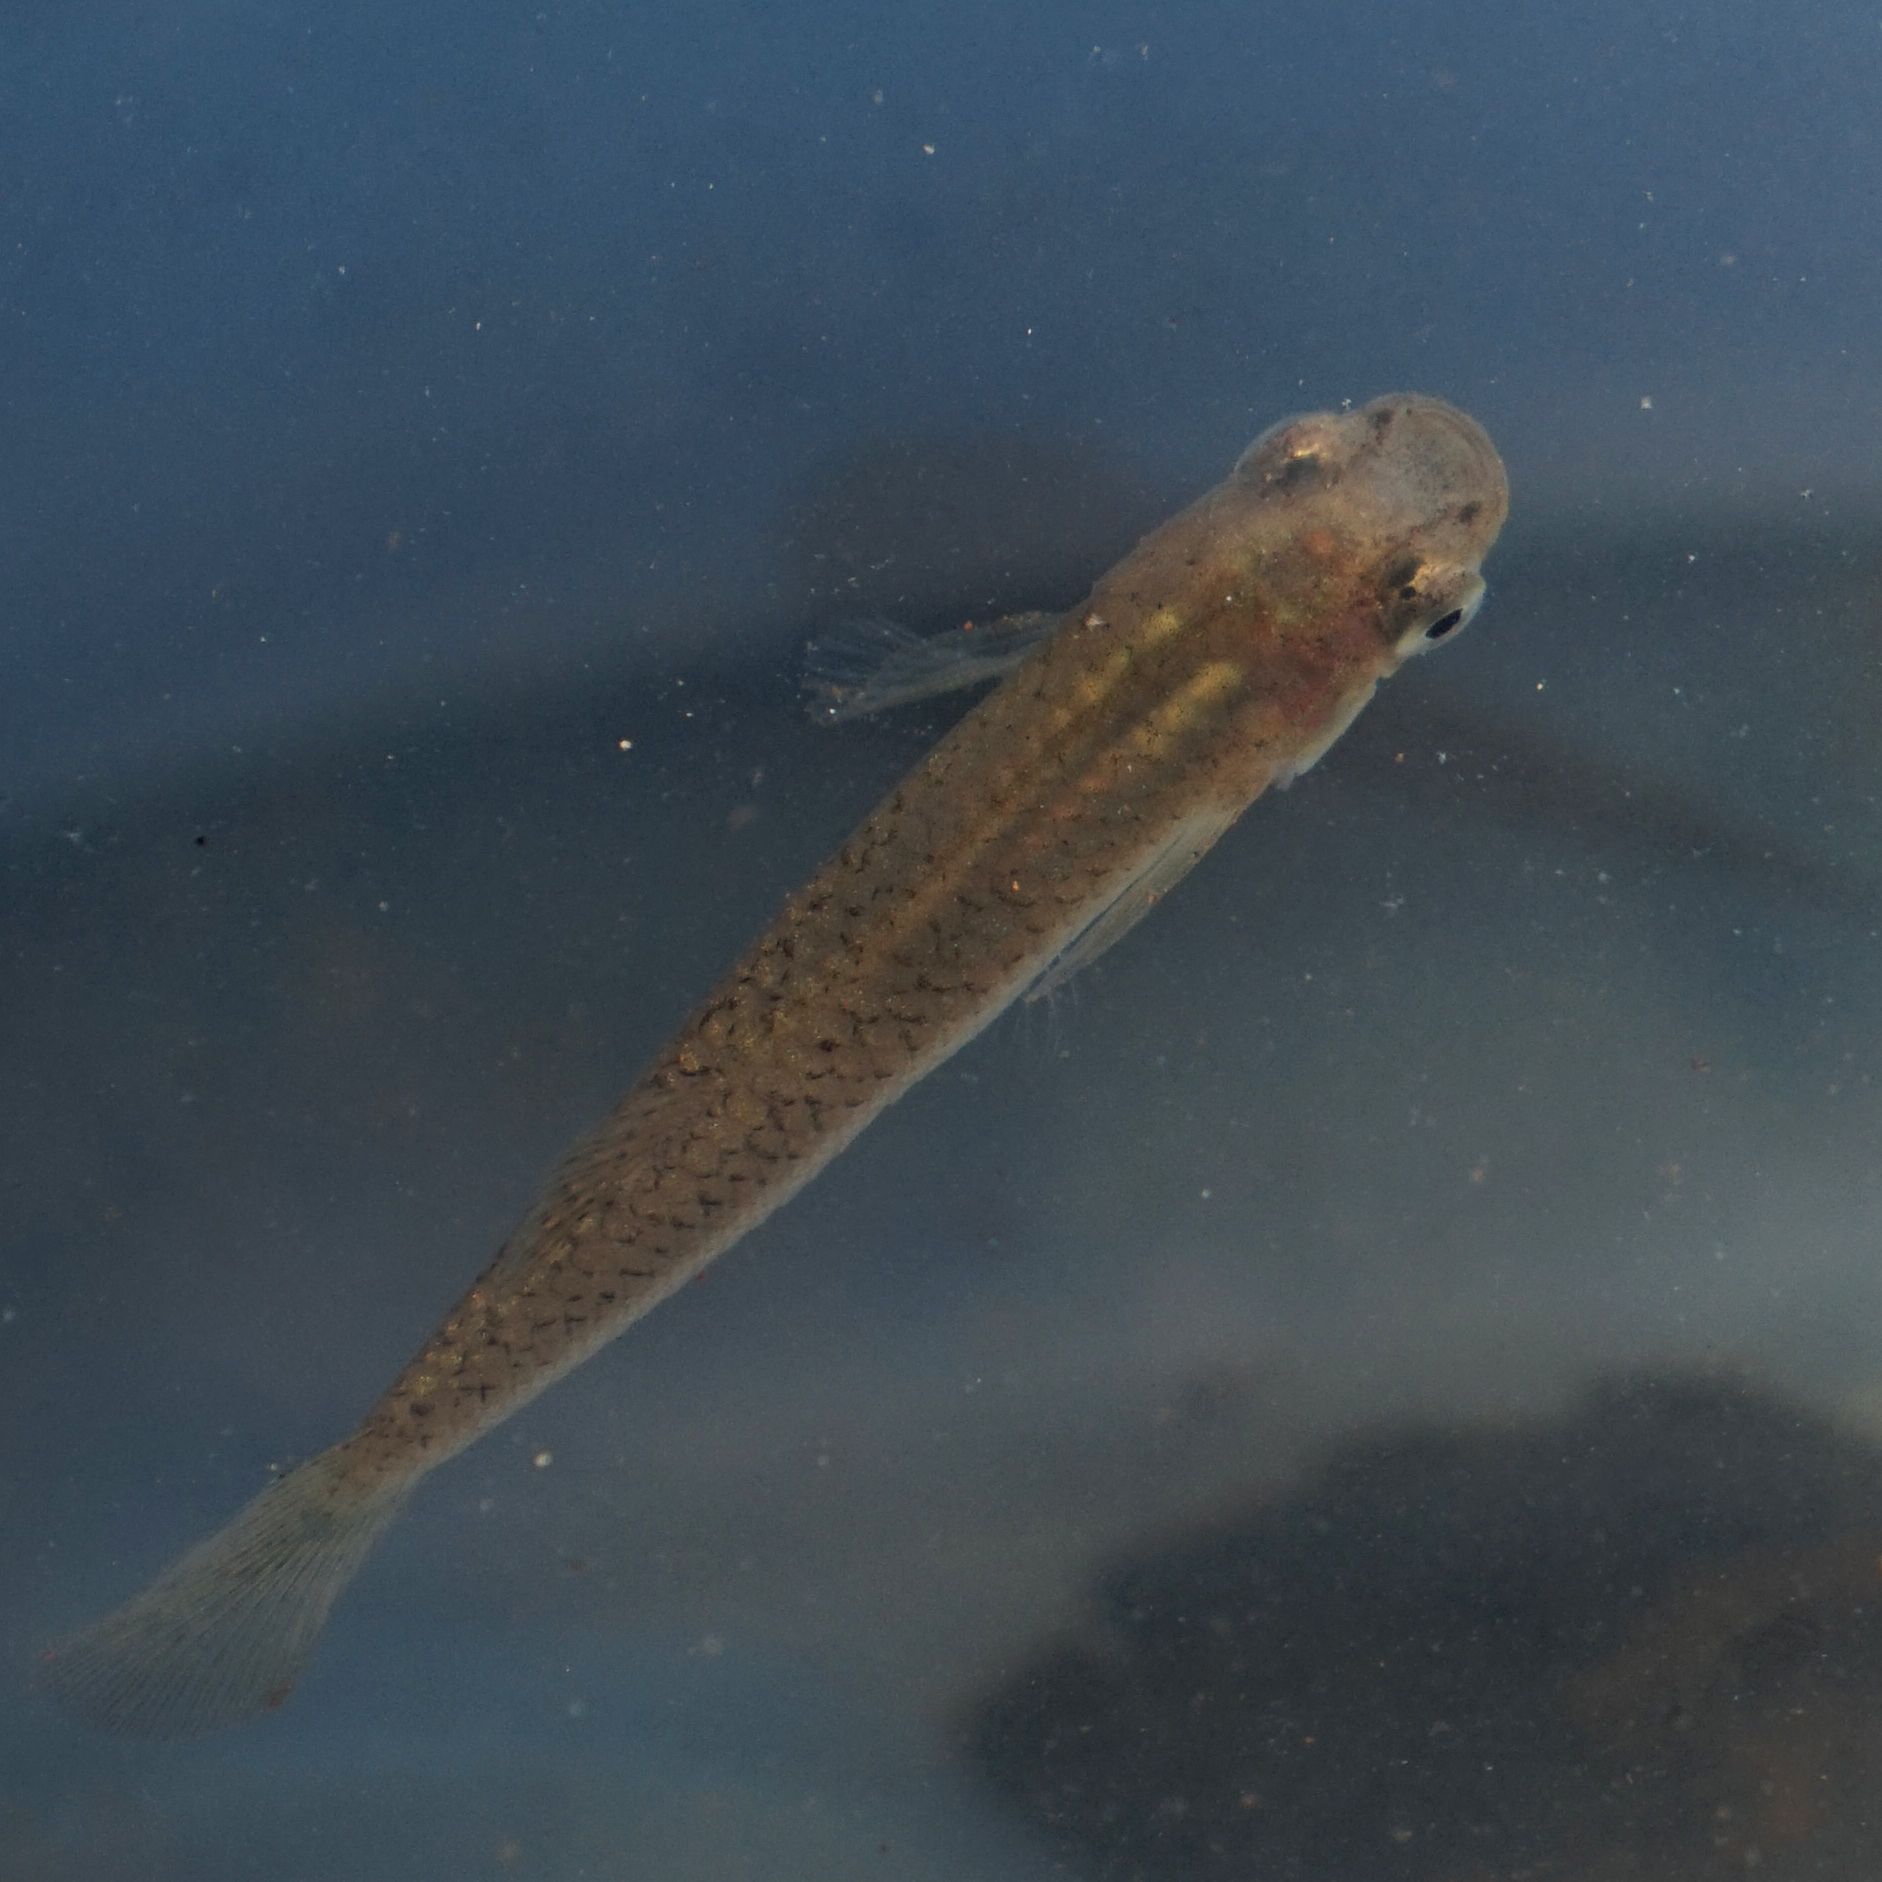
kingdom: Animalia
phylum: Chordata
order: Cyprinodontiformes
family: Poeciliidae
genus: Gambusia
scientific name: Gambusia holbrooki
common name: Eastern mosquitofish
